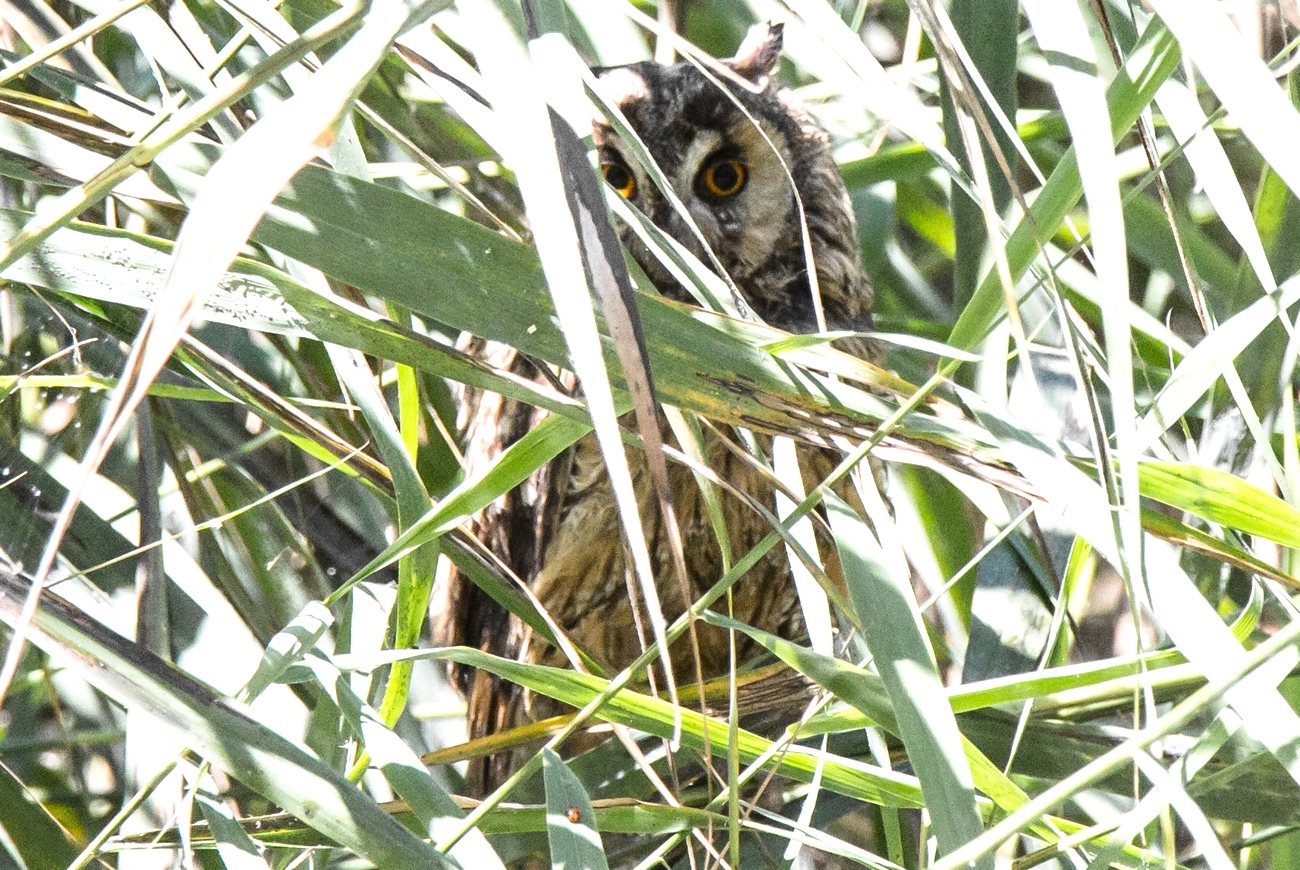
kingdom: Animalia
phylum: Chordata
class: Aves
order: Strigiformes
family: Strigidae
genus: Asio
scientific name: Asio otus
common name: Long-eared owl
